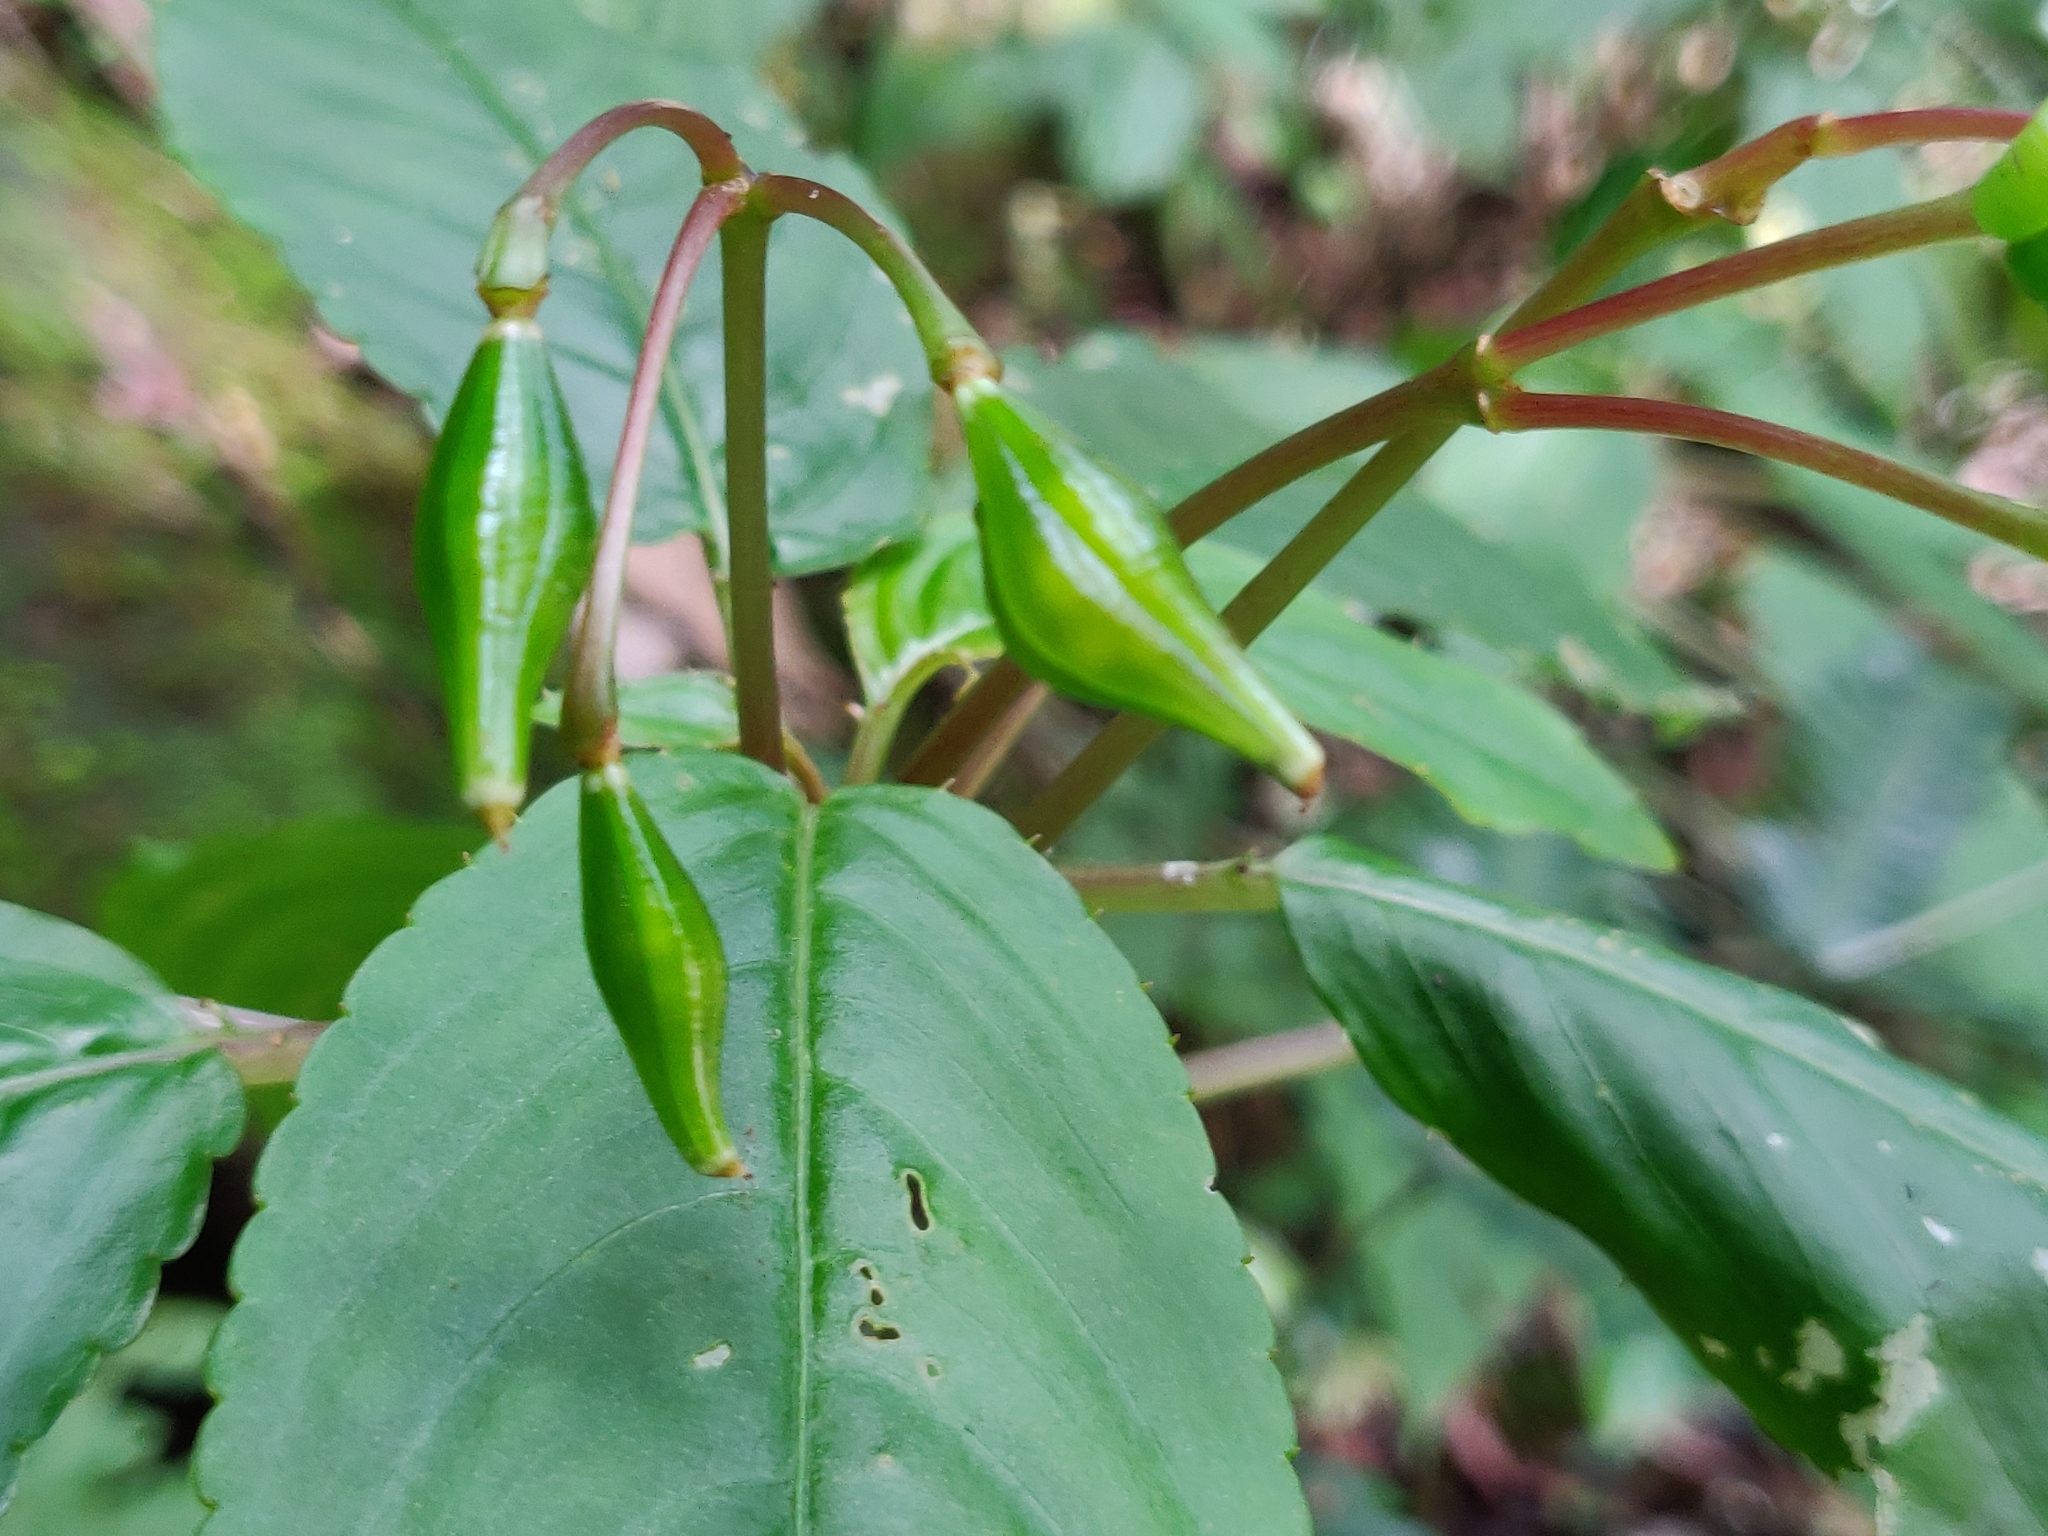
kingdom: Plantae
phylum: Tracheophyta
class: Magnoliopsida
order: Ericales
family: Balsaminaceae
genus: Impatiens
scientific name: Impatiens disotis
